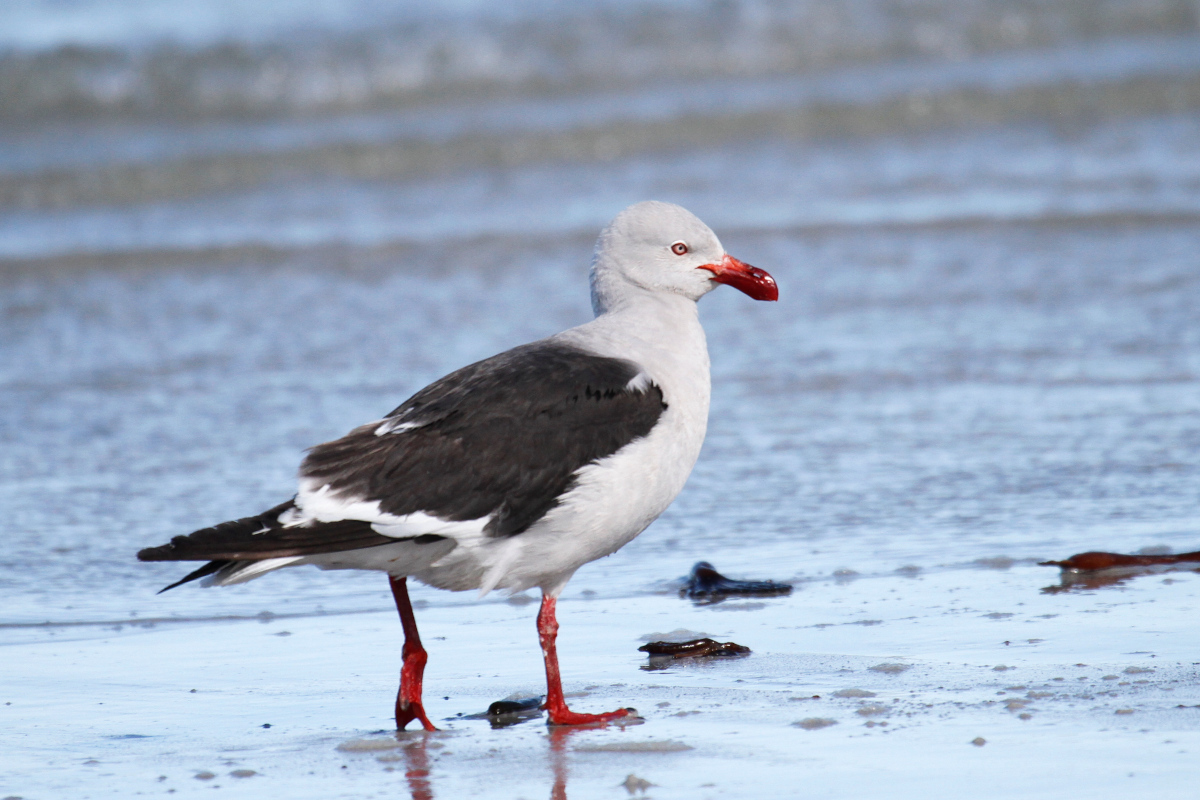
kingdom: Animalia
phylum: Chordata
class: Aves
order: Charadriiformes
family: Laridae
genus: Leucophaeus
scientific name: Leucophaeus scoresbii
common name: Dolphin gull
